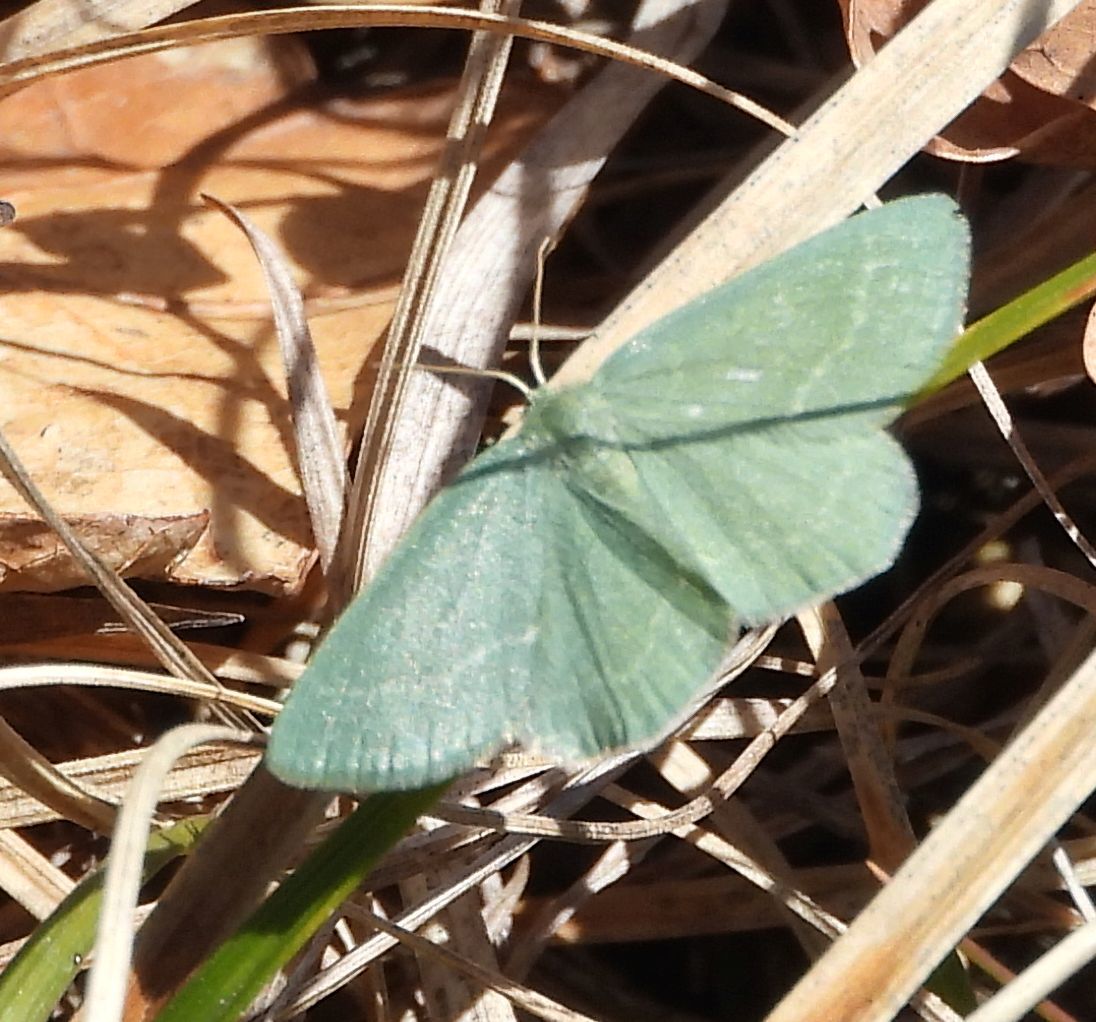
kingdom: Animalia
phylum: Arthropoda
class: Insecta
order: Lepidoptera
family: Geometridae
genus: Mesothea
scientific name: Mesothea incertata
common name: Day emerald moth
